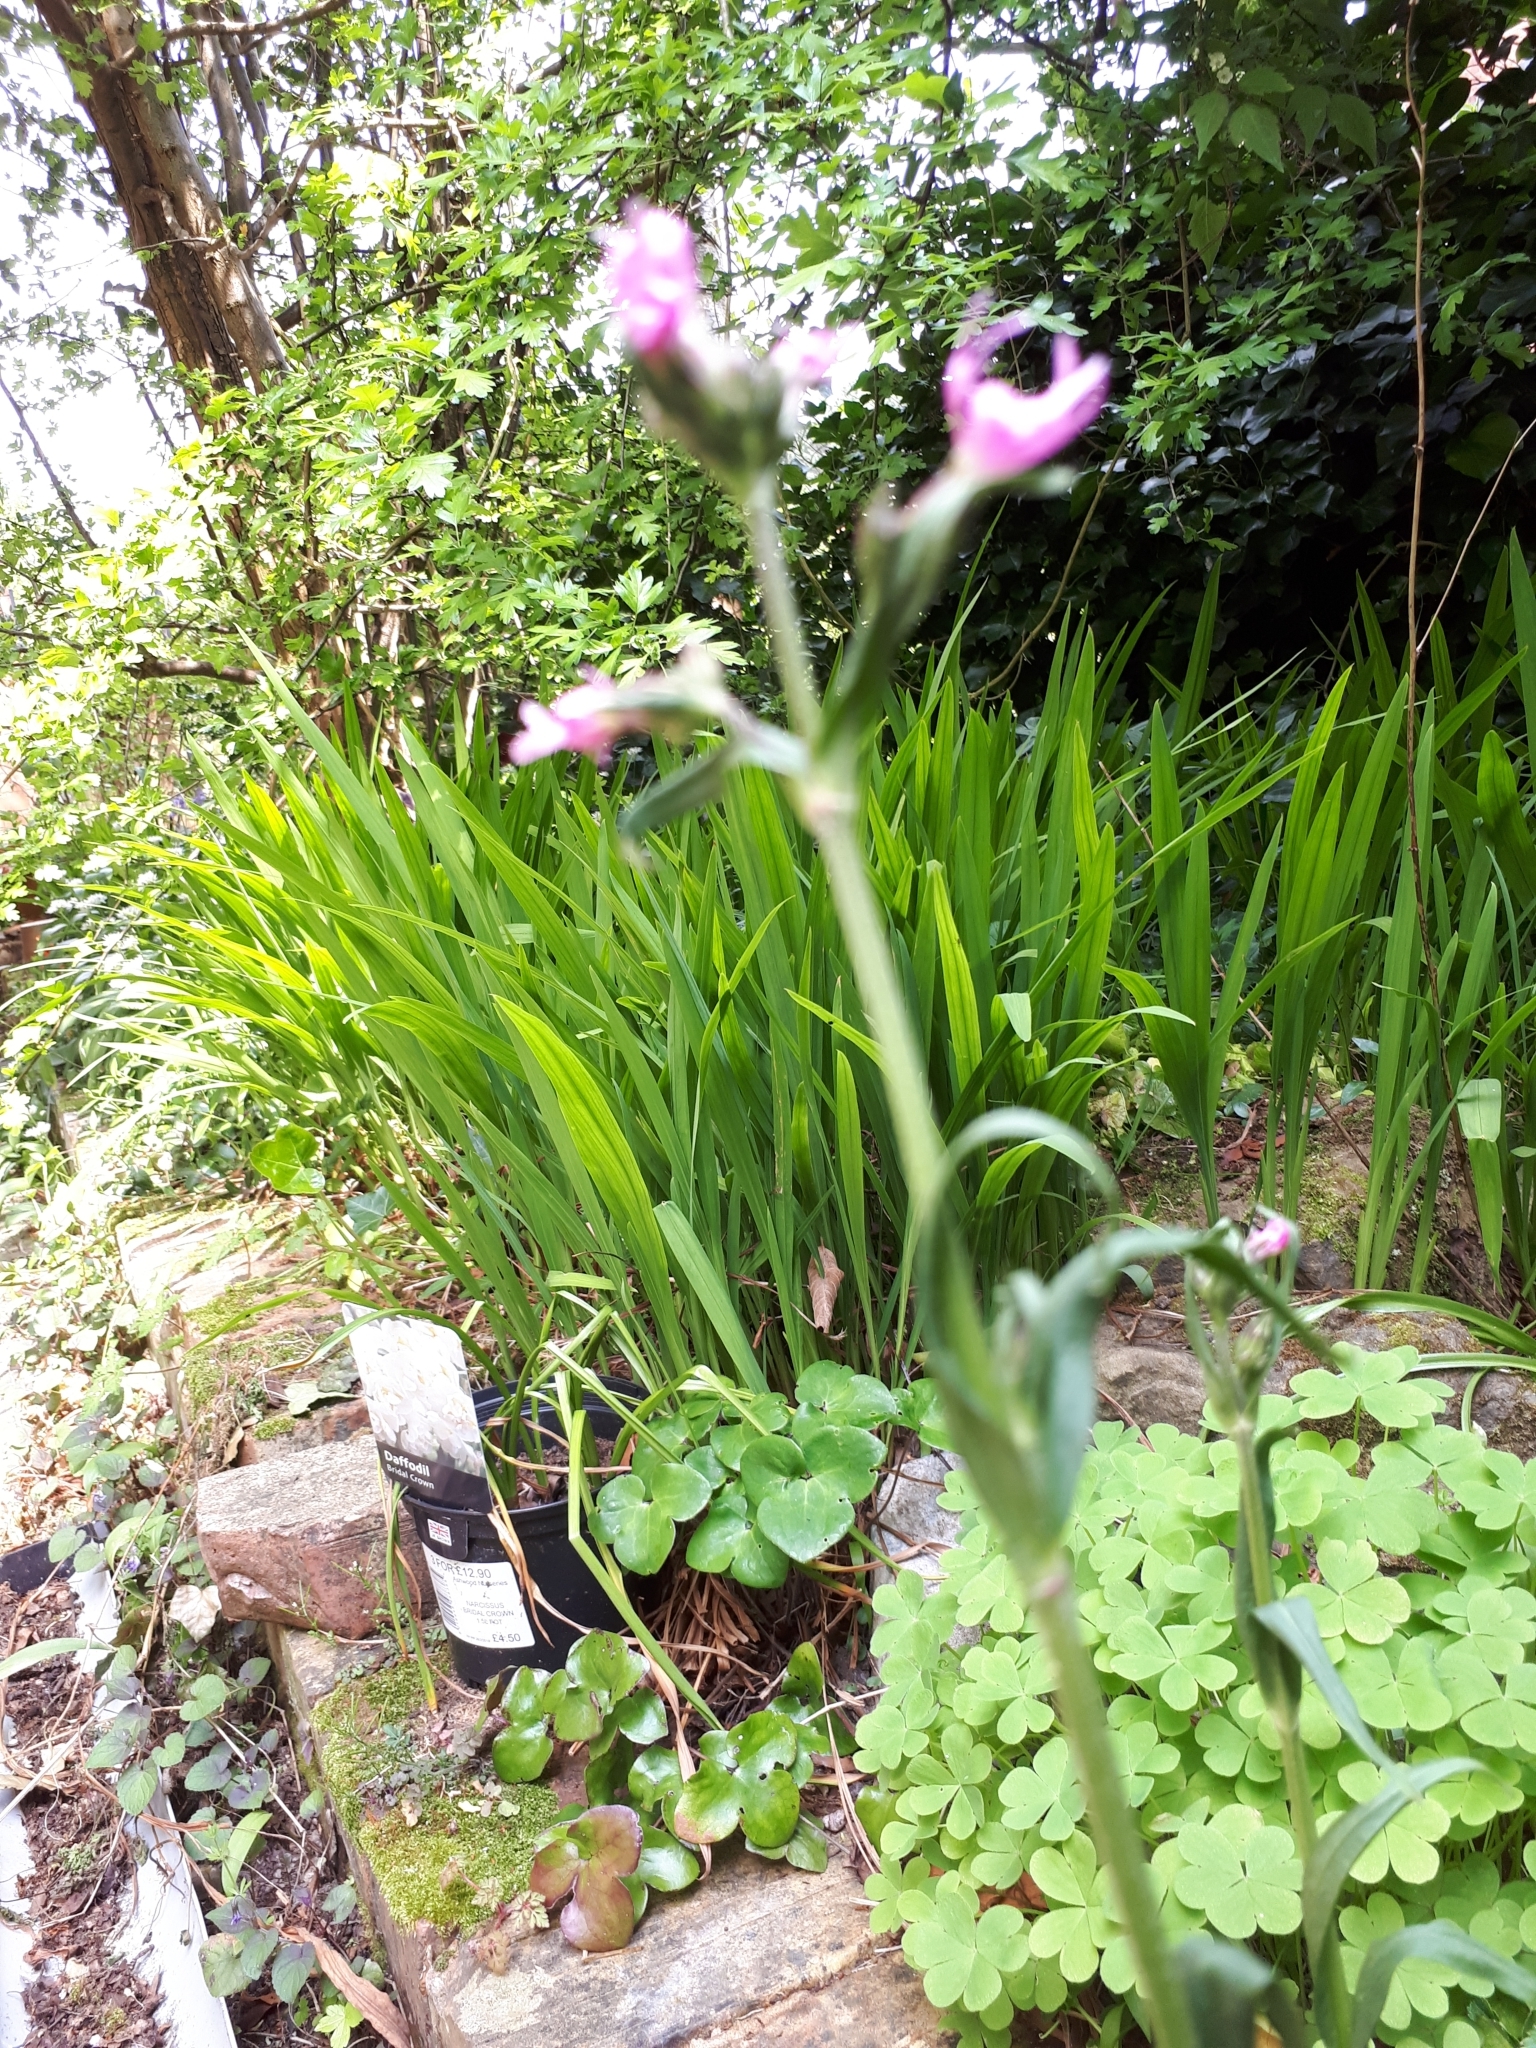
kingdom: Plantae
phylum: Tracheophyta
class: Magnoliopsida
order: Caryophyllales
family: Caryophyllaceae
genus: Silene
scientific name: Silene flos-cuculi
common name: Ragged-robin
